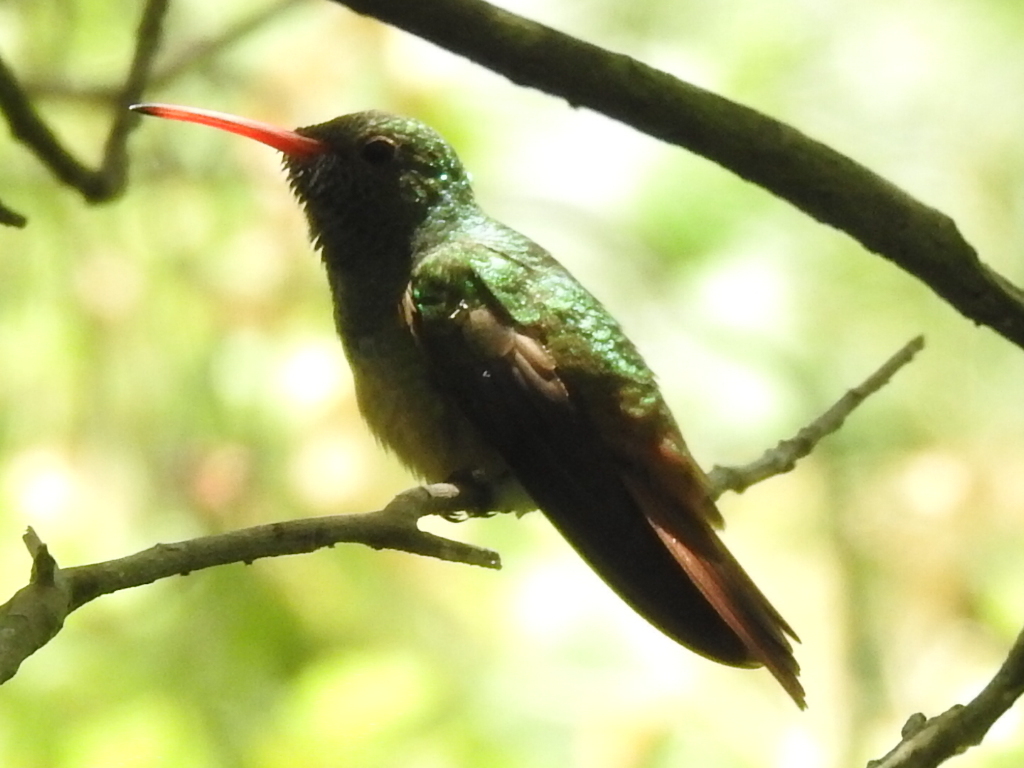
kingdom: Animalia
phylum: Chordata
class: Aves
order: Apodiformes
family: Trochilidae
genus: Amazilia
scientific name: Amazilia yucatanensis
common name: Buff-bellied hummingbird
